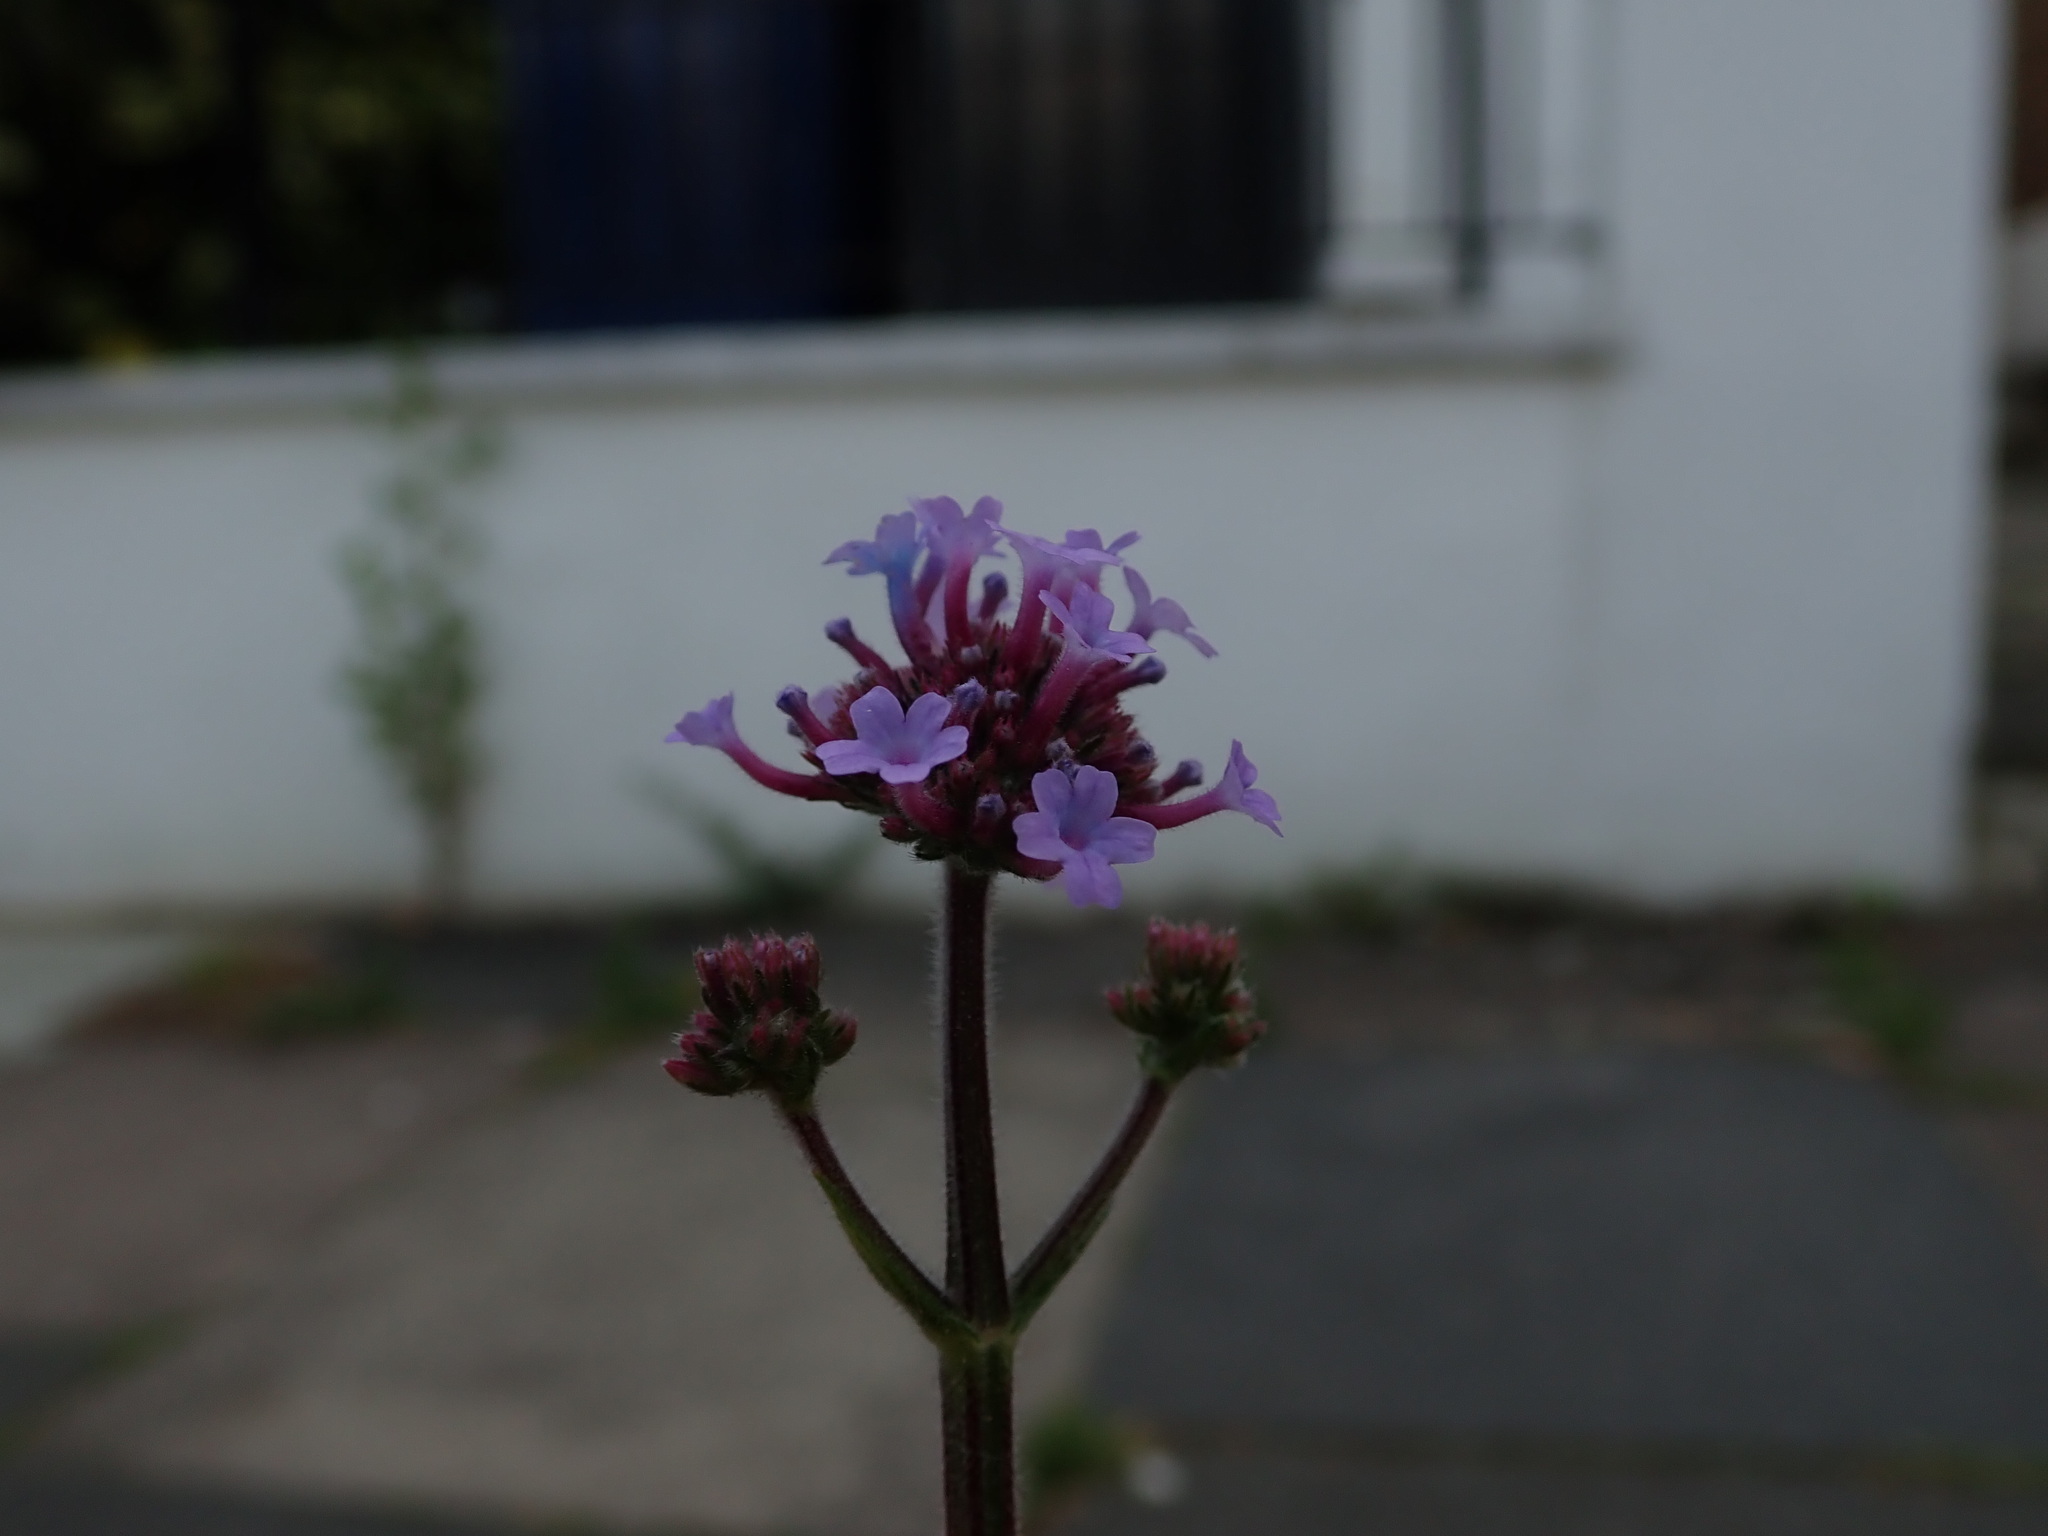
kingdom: Plantae
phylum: Tracheophyta
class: Magnoliopsida
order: Lamiales
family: Verbenaceae
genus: Verbena
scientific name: Verbena bonariensis
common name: Purpletop vervain
